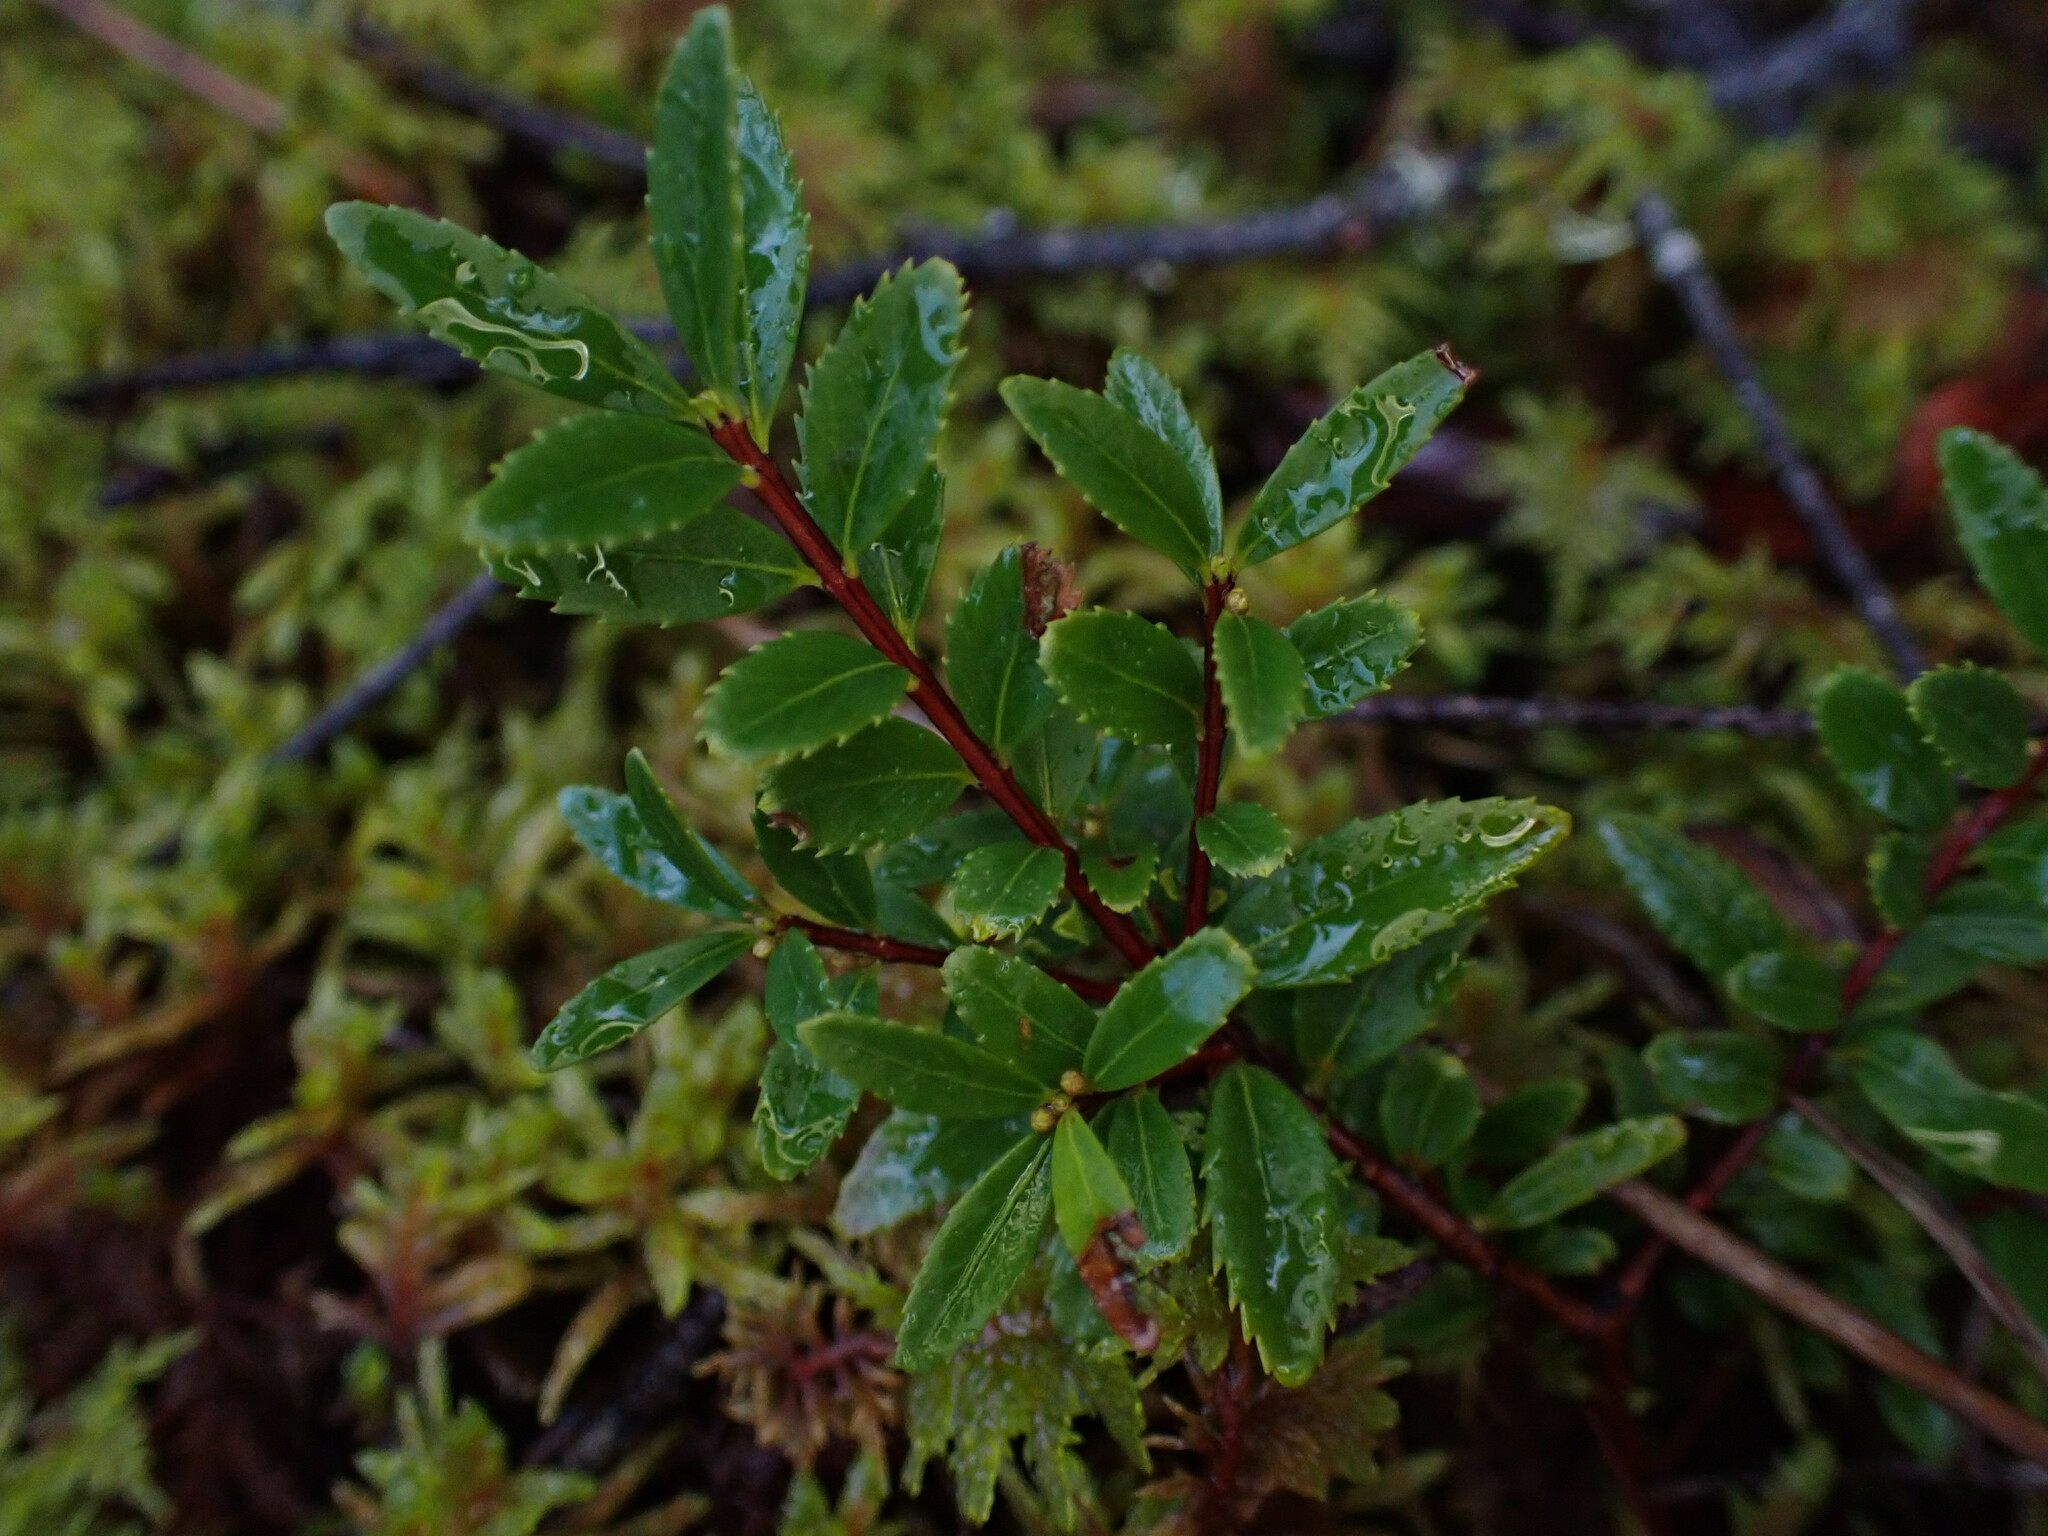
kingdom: Plantae
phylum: Tracheophyta
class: Magnoliopsida
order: Celastrales
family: Celastraceae
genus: Paxistima
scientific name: Paxistima myrsinites
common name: Mountain-lover
